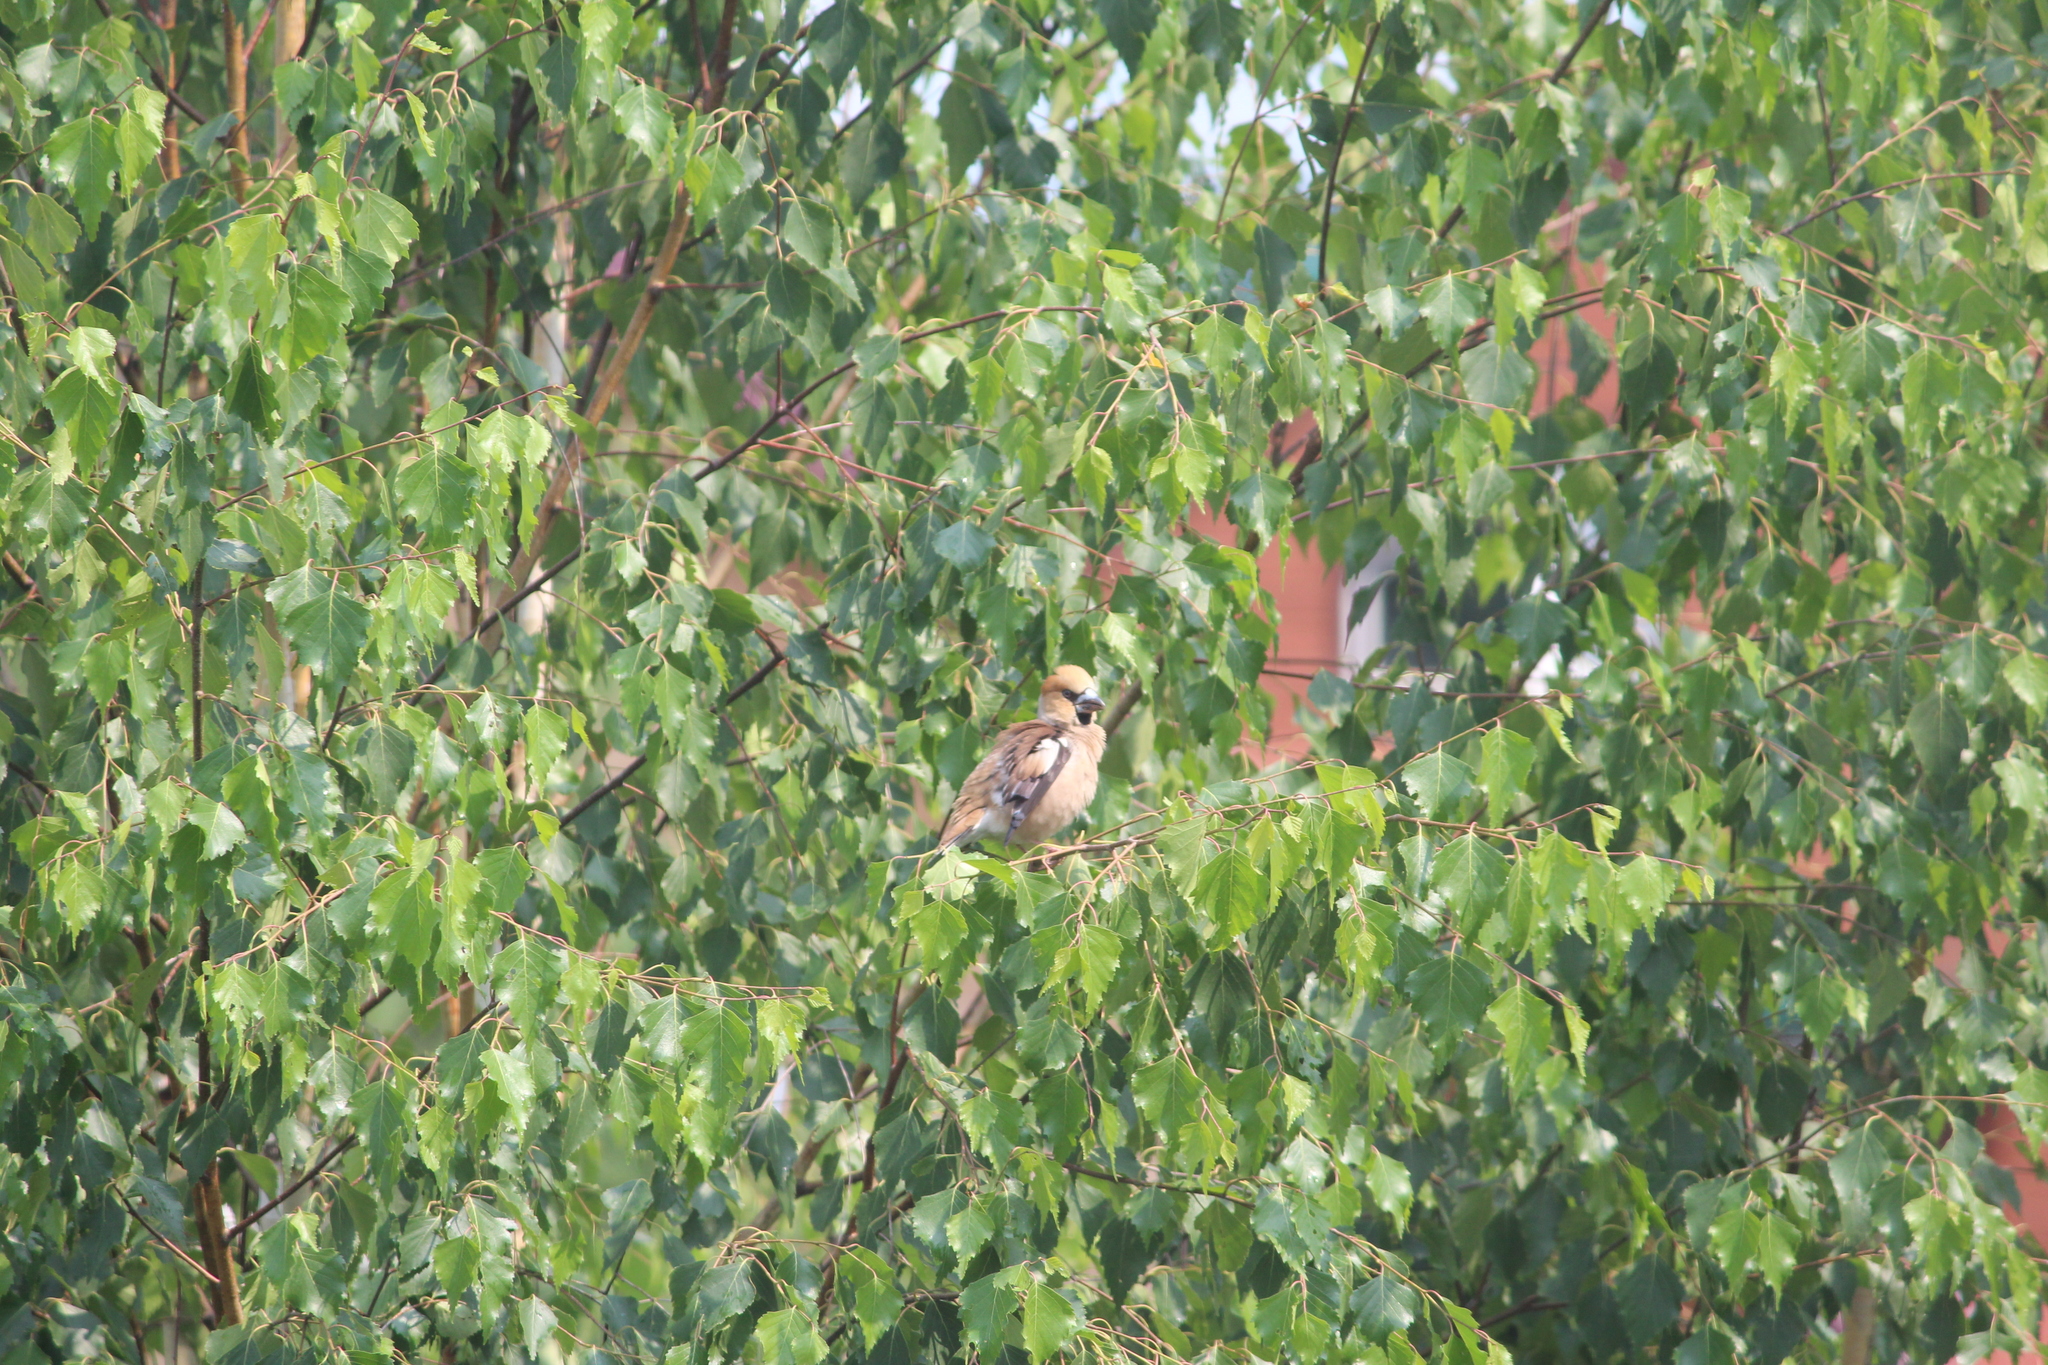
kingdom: Animalia
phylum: Chordata
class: Aves
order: Passeriformes
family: Fringillidae
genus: Coccothraustes
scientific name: Coccothraustes coccothraustes
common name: Hawfinch
